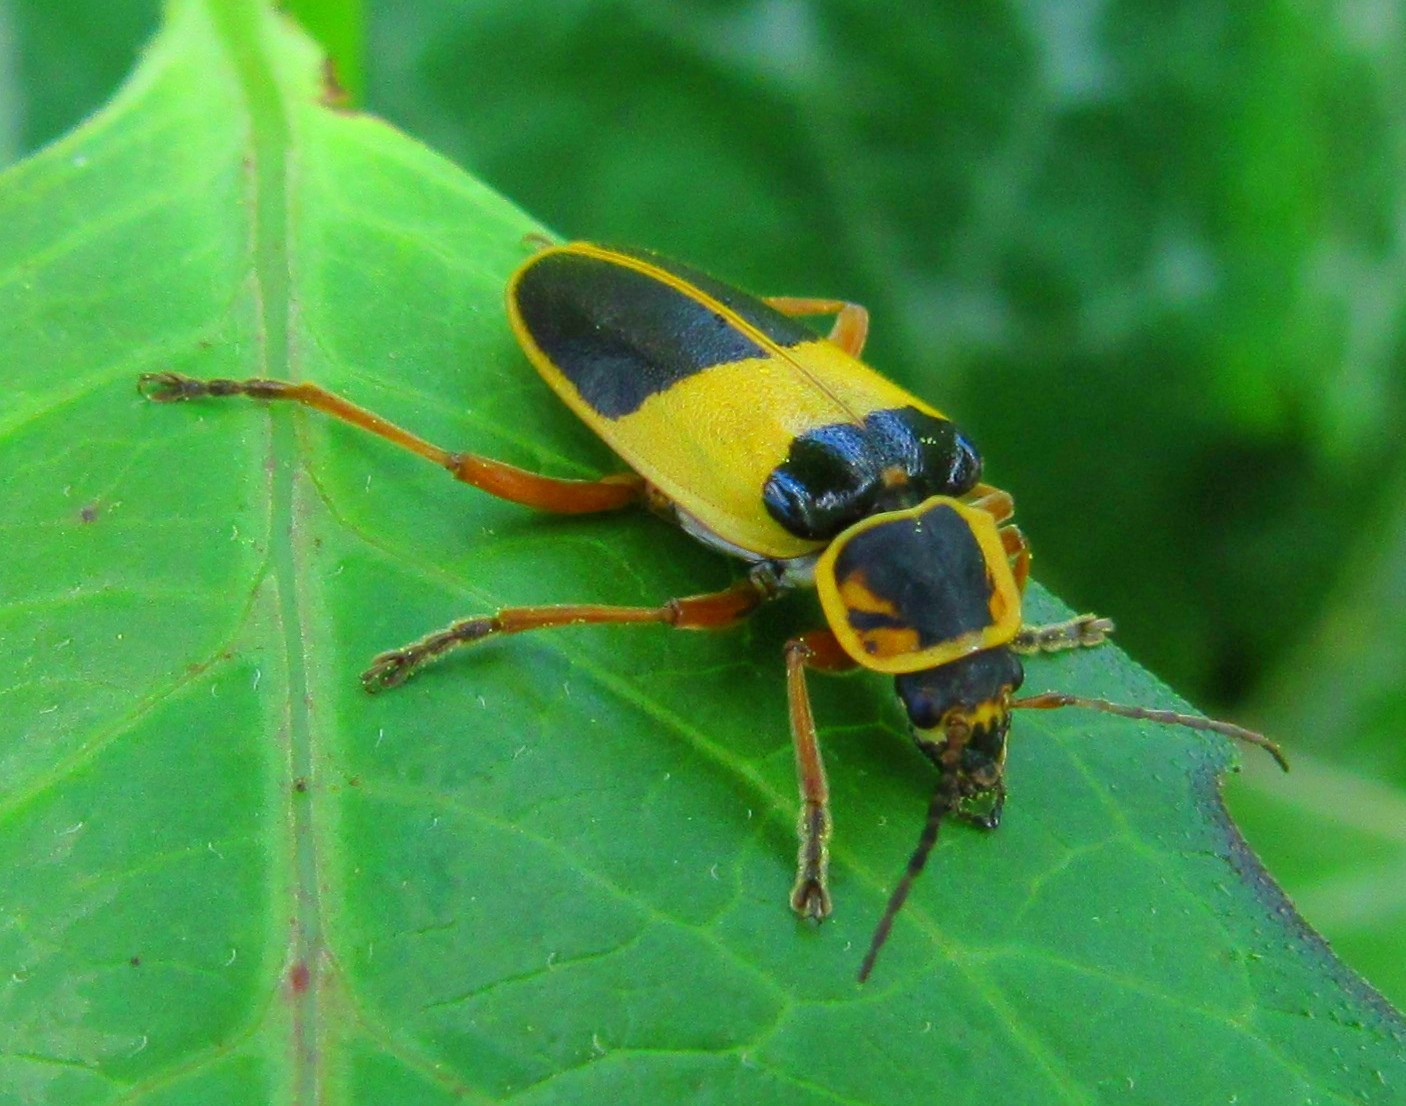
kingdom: Animalia
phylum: Arthropoda
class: Insecta
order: Coleoptera
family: Cantharidae
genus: Chauliognathus
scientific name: Chauliognathus
